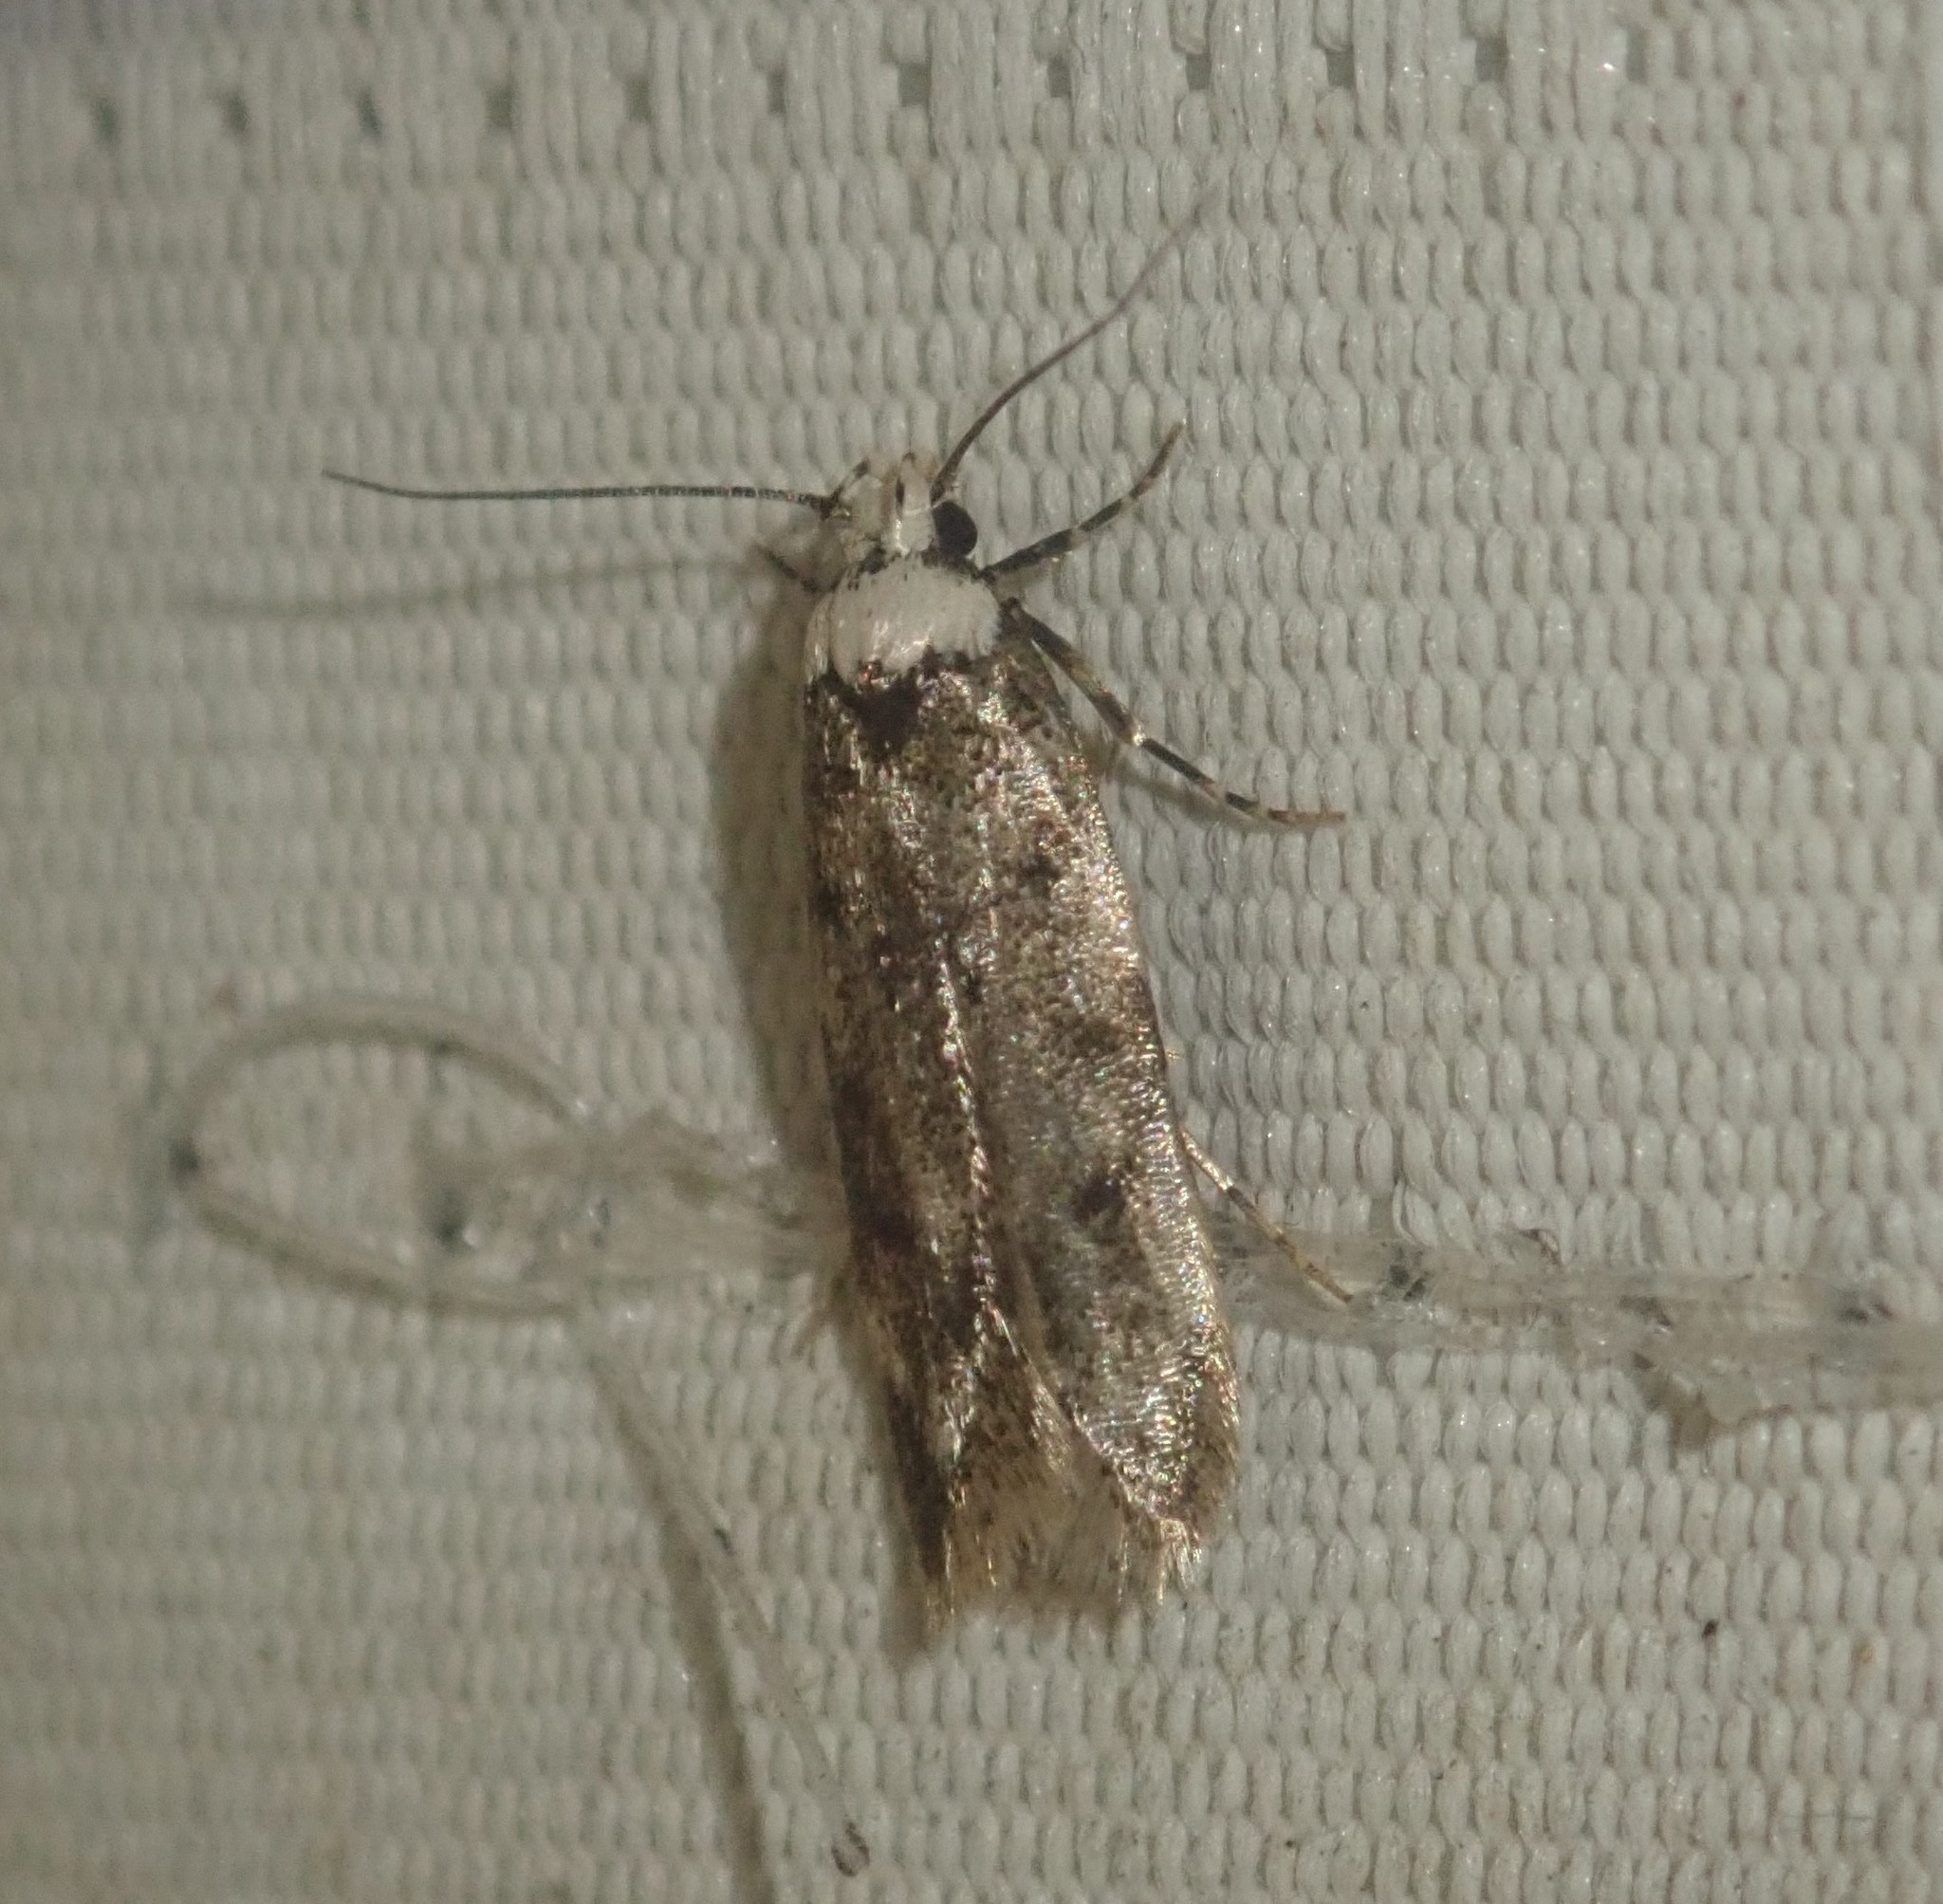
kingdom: Animalia
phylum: Arthropoda
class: Insecta
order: Lepidoptera
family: Oecophoridae
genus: Endrosis
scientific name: Endrosis sarcitrella
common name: White-shouldered house moth
